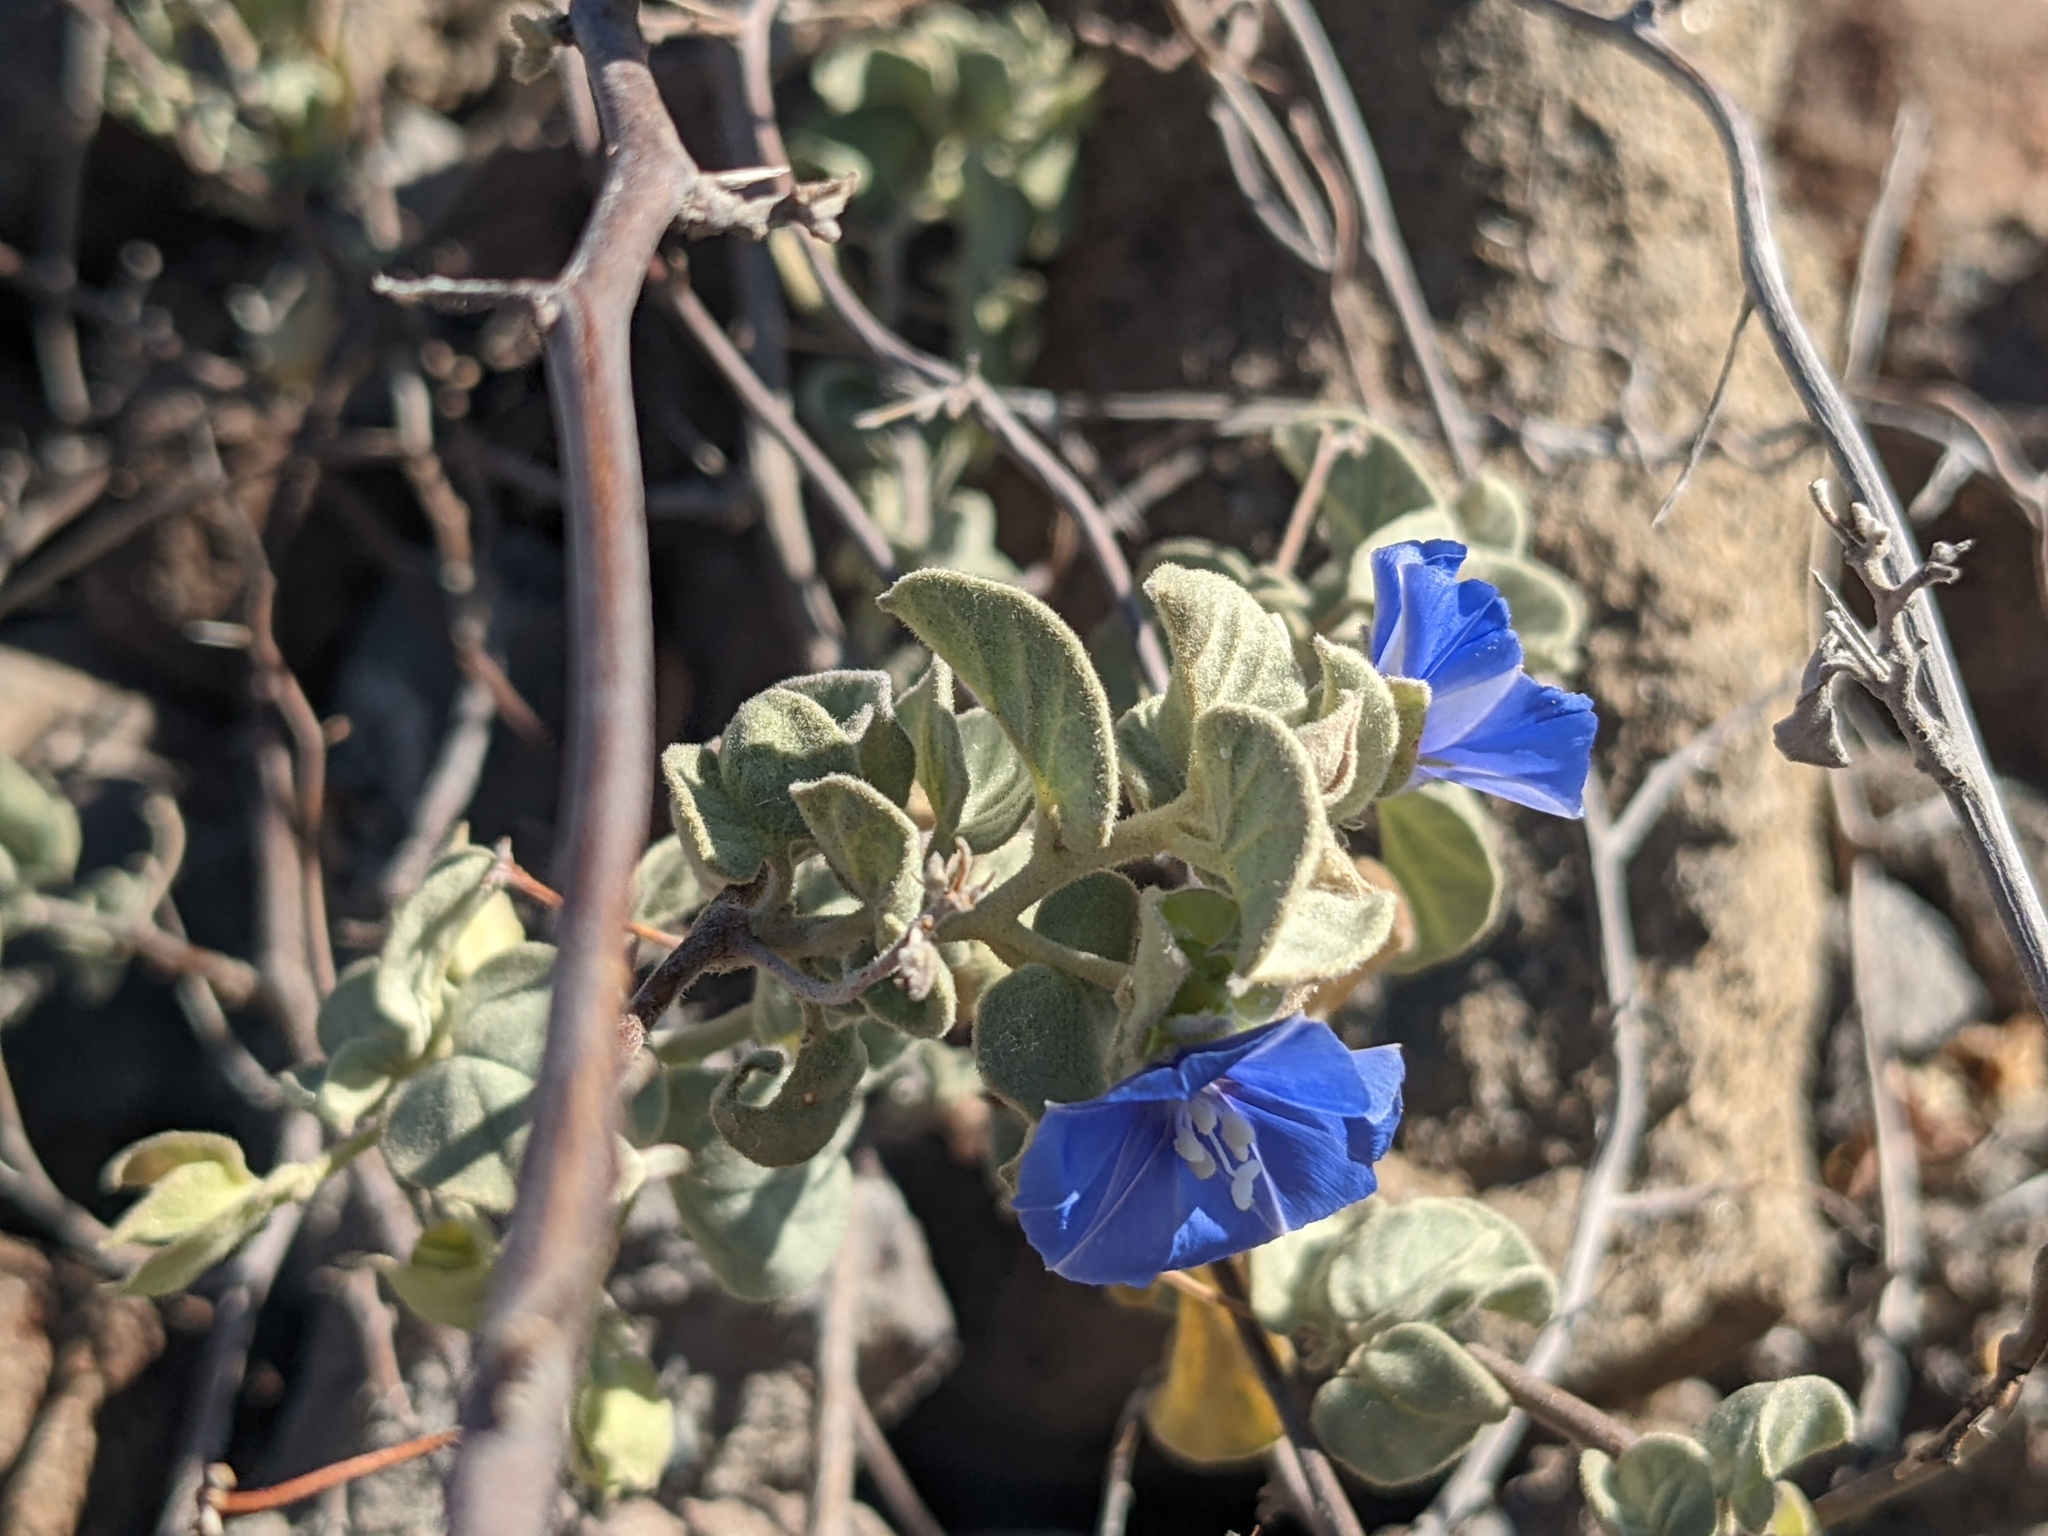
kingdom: Plantae
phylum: Tracheophyta
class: Magnoliopsida
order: Solanales
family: Convolvulaceae
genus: Jacquemontia
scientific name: Jacquemontia abutiloides
